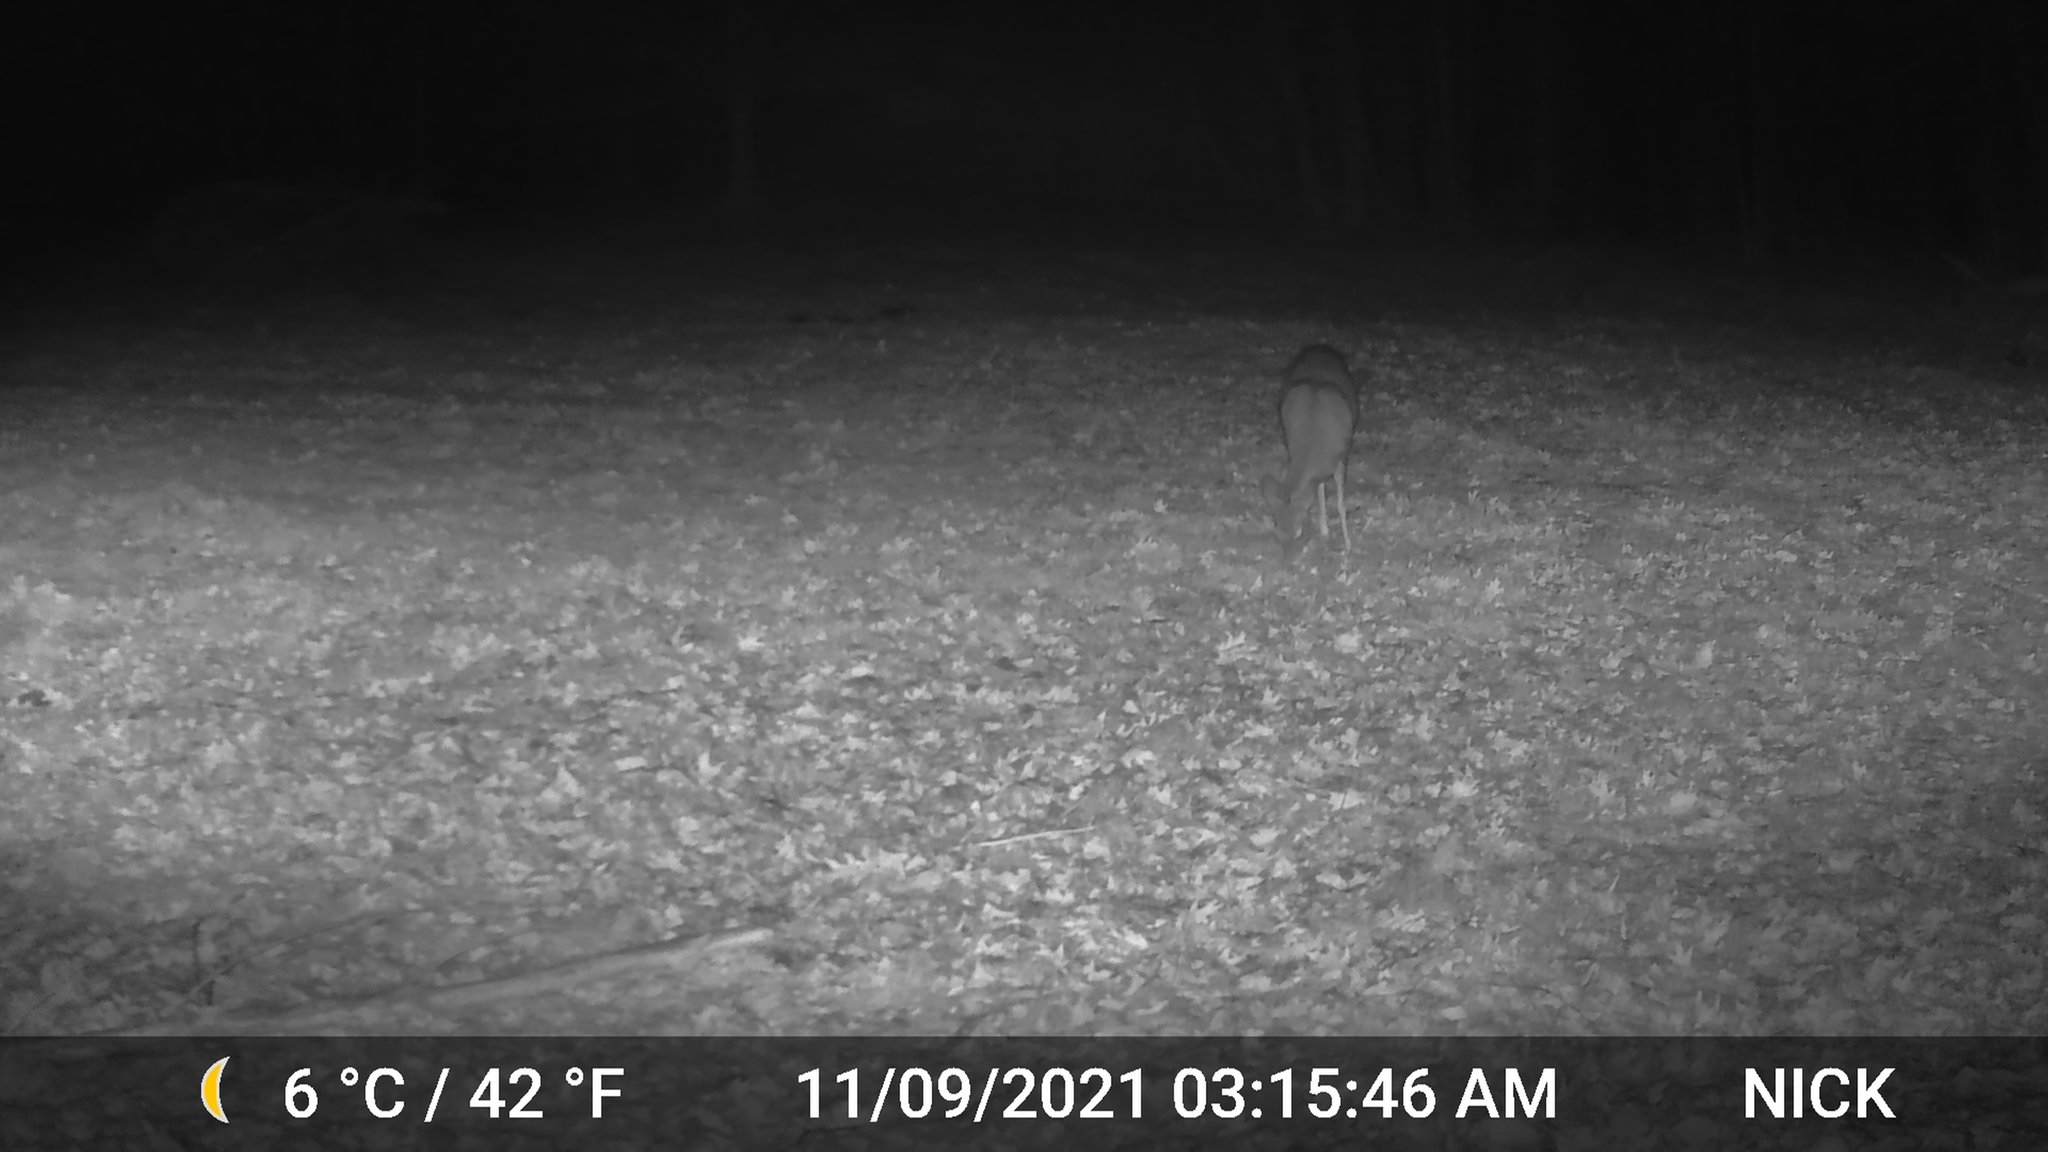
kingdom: Animalia
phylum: Chordata
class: Mammalia
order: Artiodactyla
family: Cervidae
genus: Odocoileus
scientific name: Odocoileus virginianus
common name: White-tailed deer
